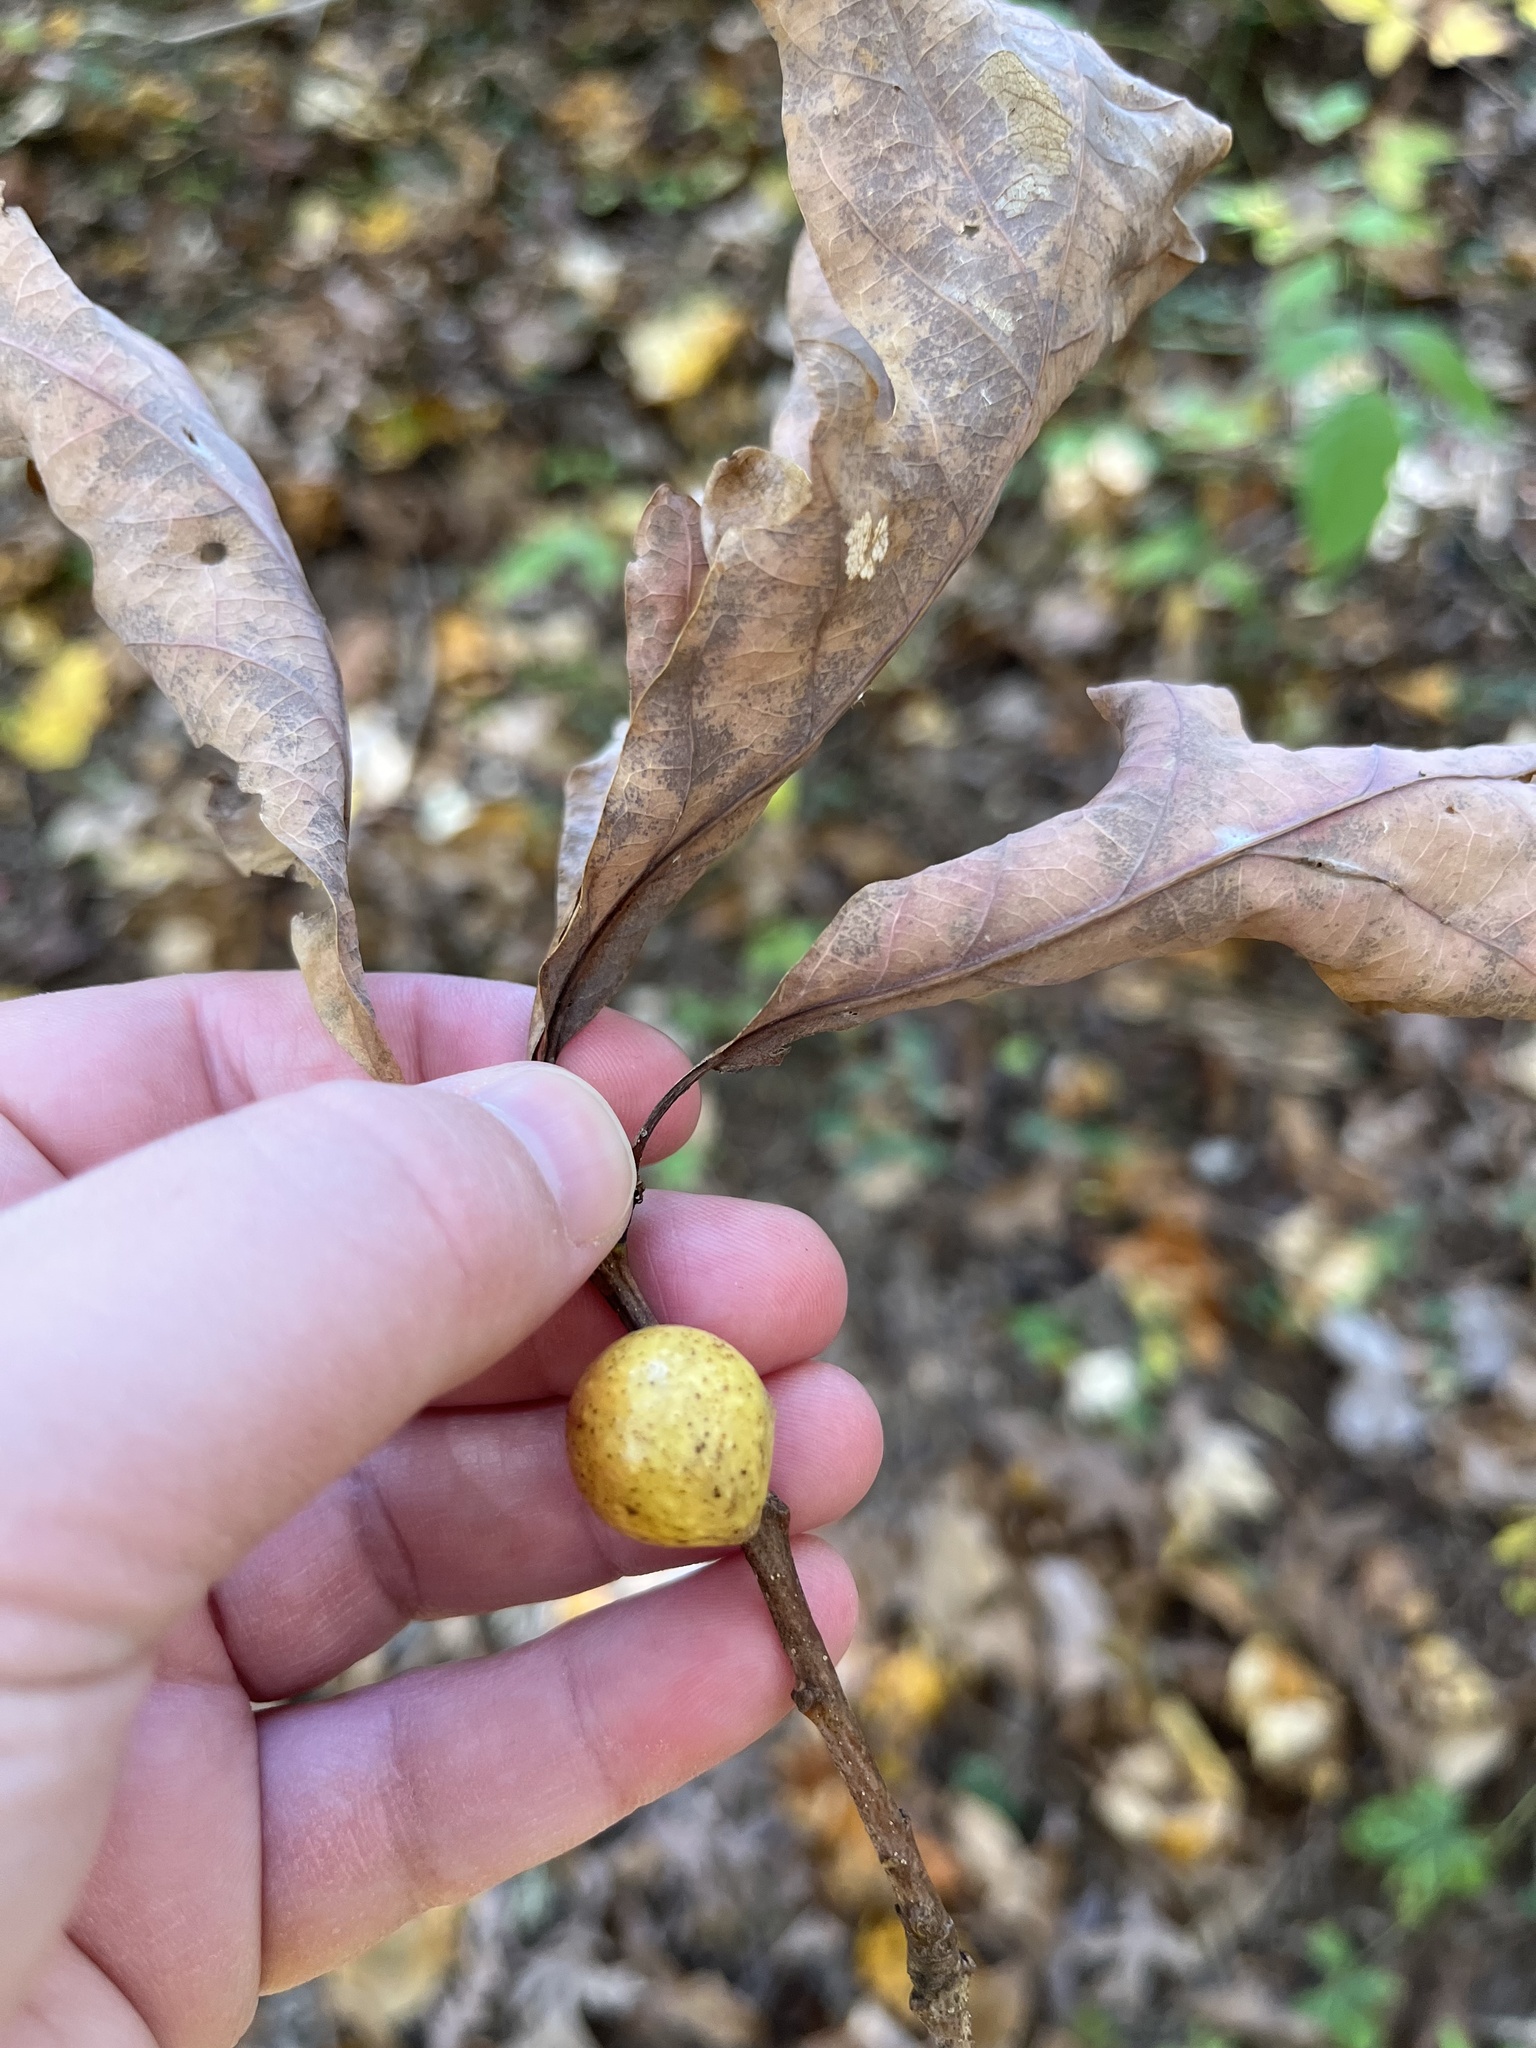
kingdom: Animalia
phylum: Arthropoda
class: Insecta
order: Hymenoptera
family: Cynipidae
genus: Disholcaspis
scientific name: Disholcaspis quercusglobulus
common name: Round bullet gall wasp
